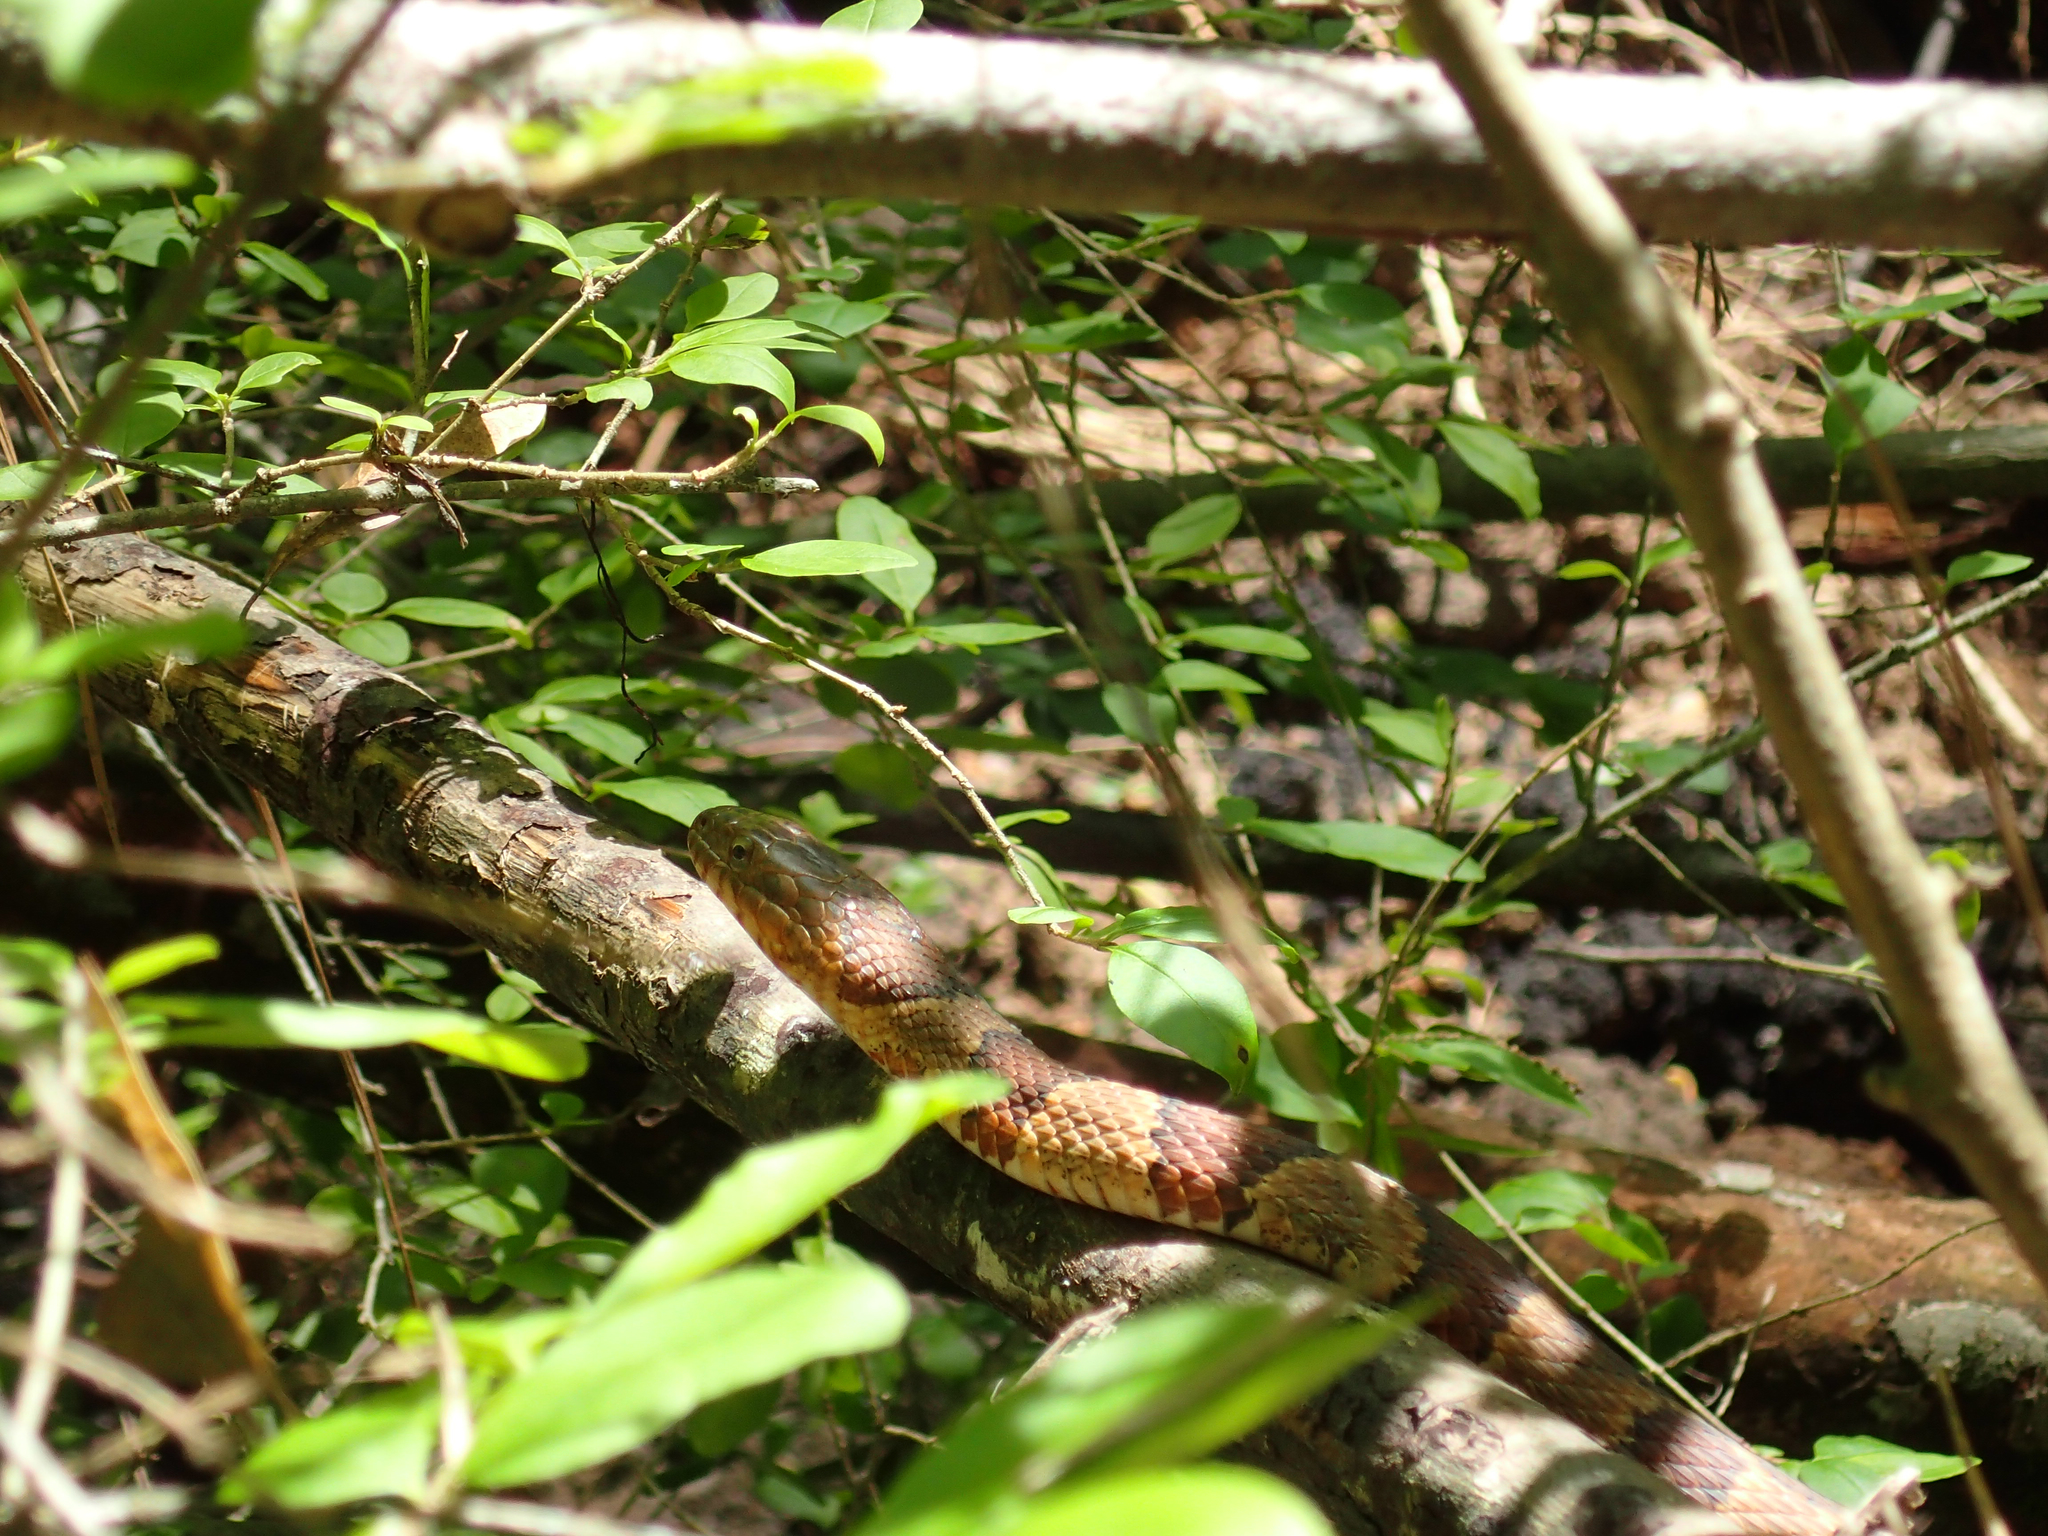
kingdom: Animalia
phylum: Chordata
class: Squamata
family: Colubridae
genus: Nerodia
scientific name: Nerodia sipedon
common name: Northern water snake
